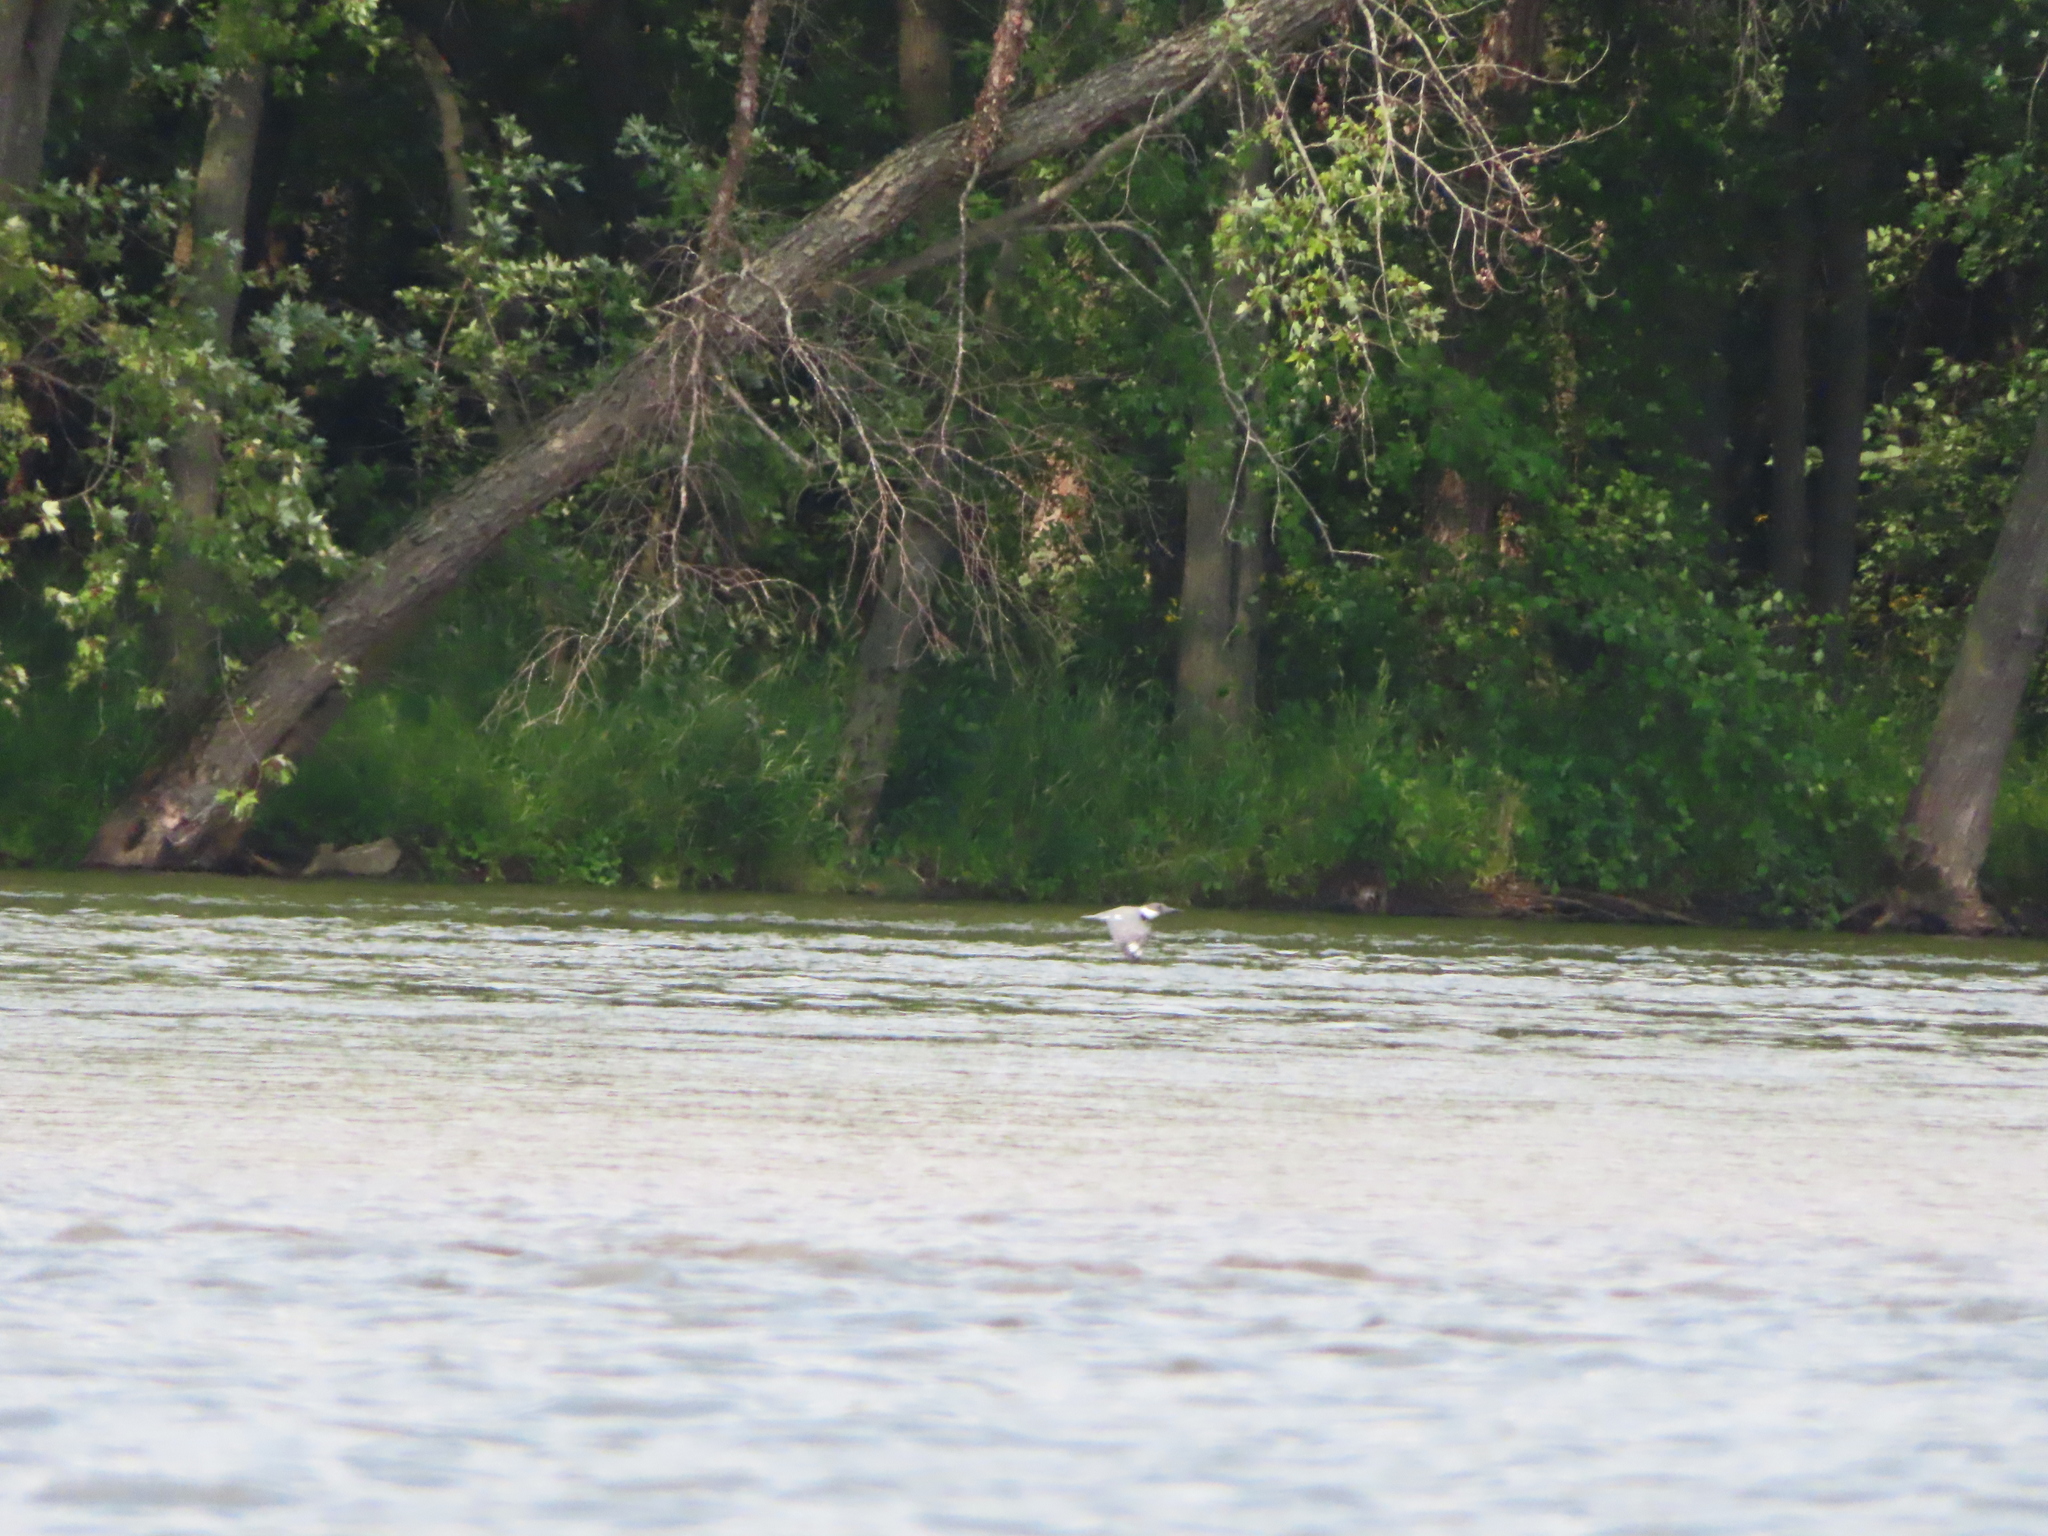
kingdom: Animalia
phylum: Chordata
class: Aves
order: Coraciiformes
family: Alcedinidae
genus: Megaceryle
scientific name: Megaceryle alcyon
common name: Belted kingfisher
